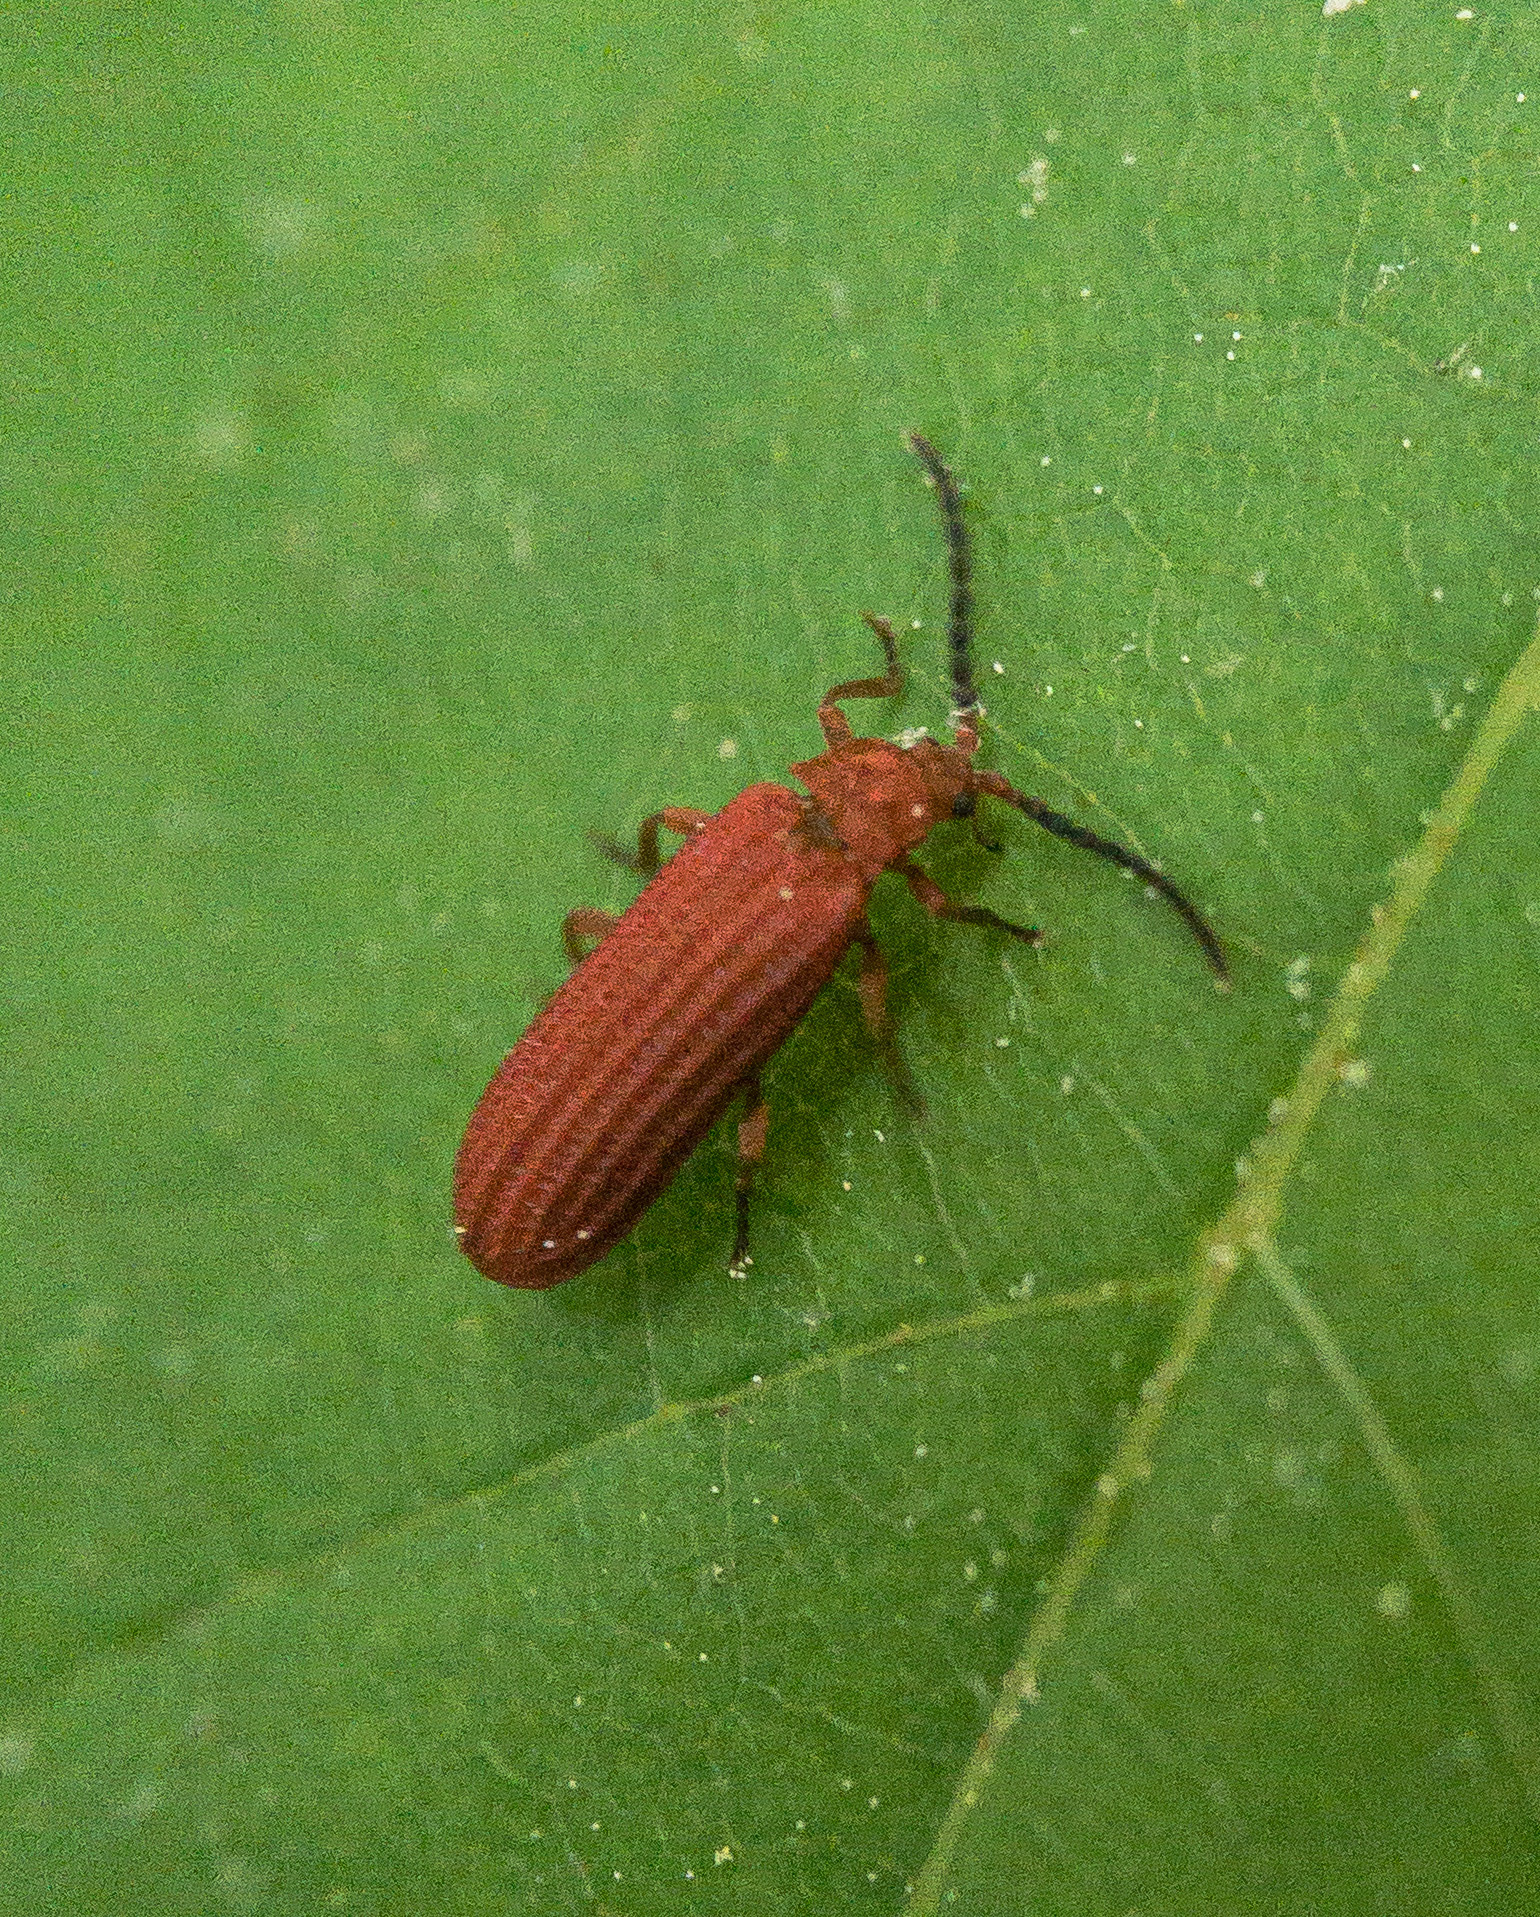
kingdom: Animalia
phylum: Arthropoda
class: Insecta
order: Coleoptera
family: Lycidae
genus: Punicealis
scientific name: Punicealis
